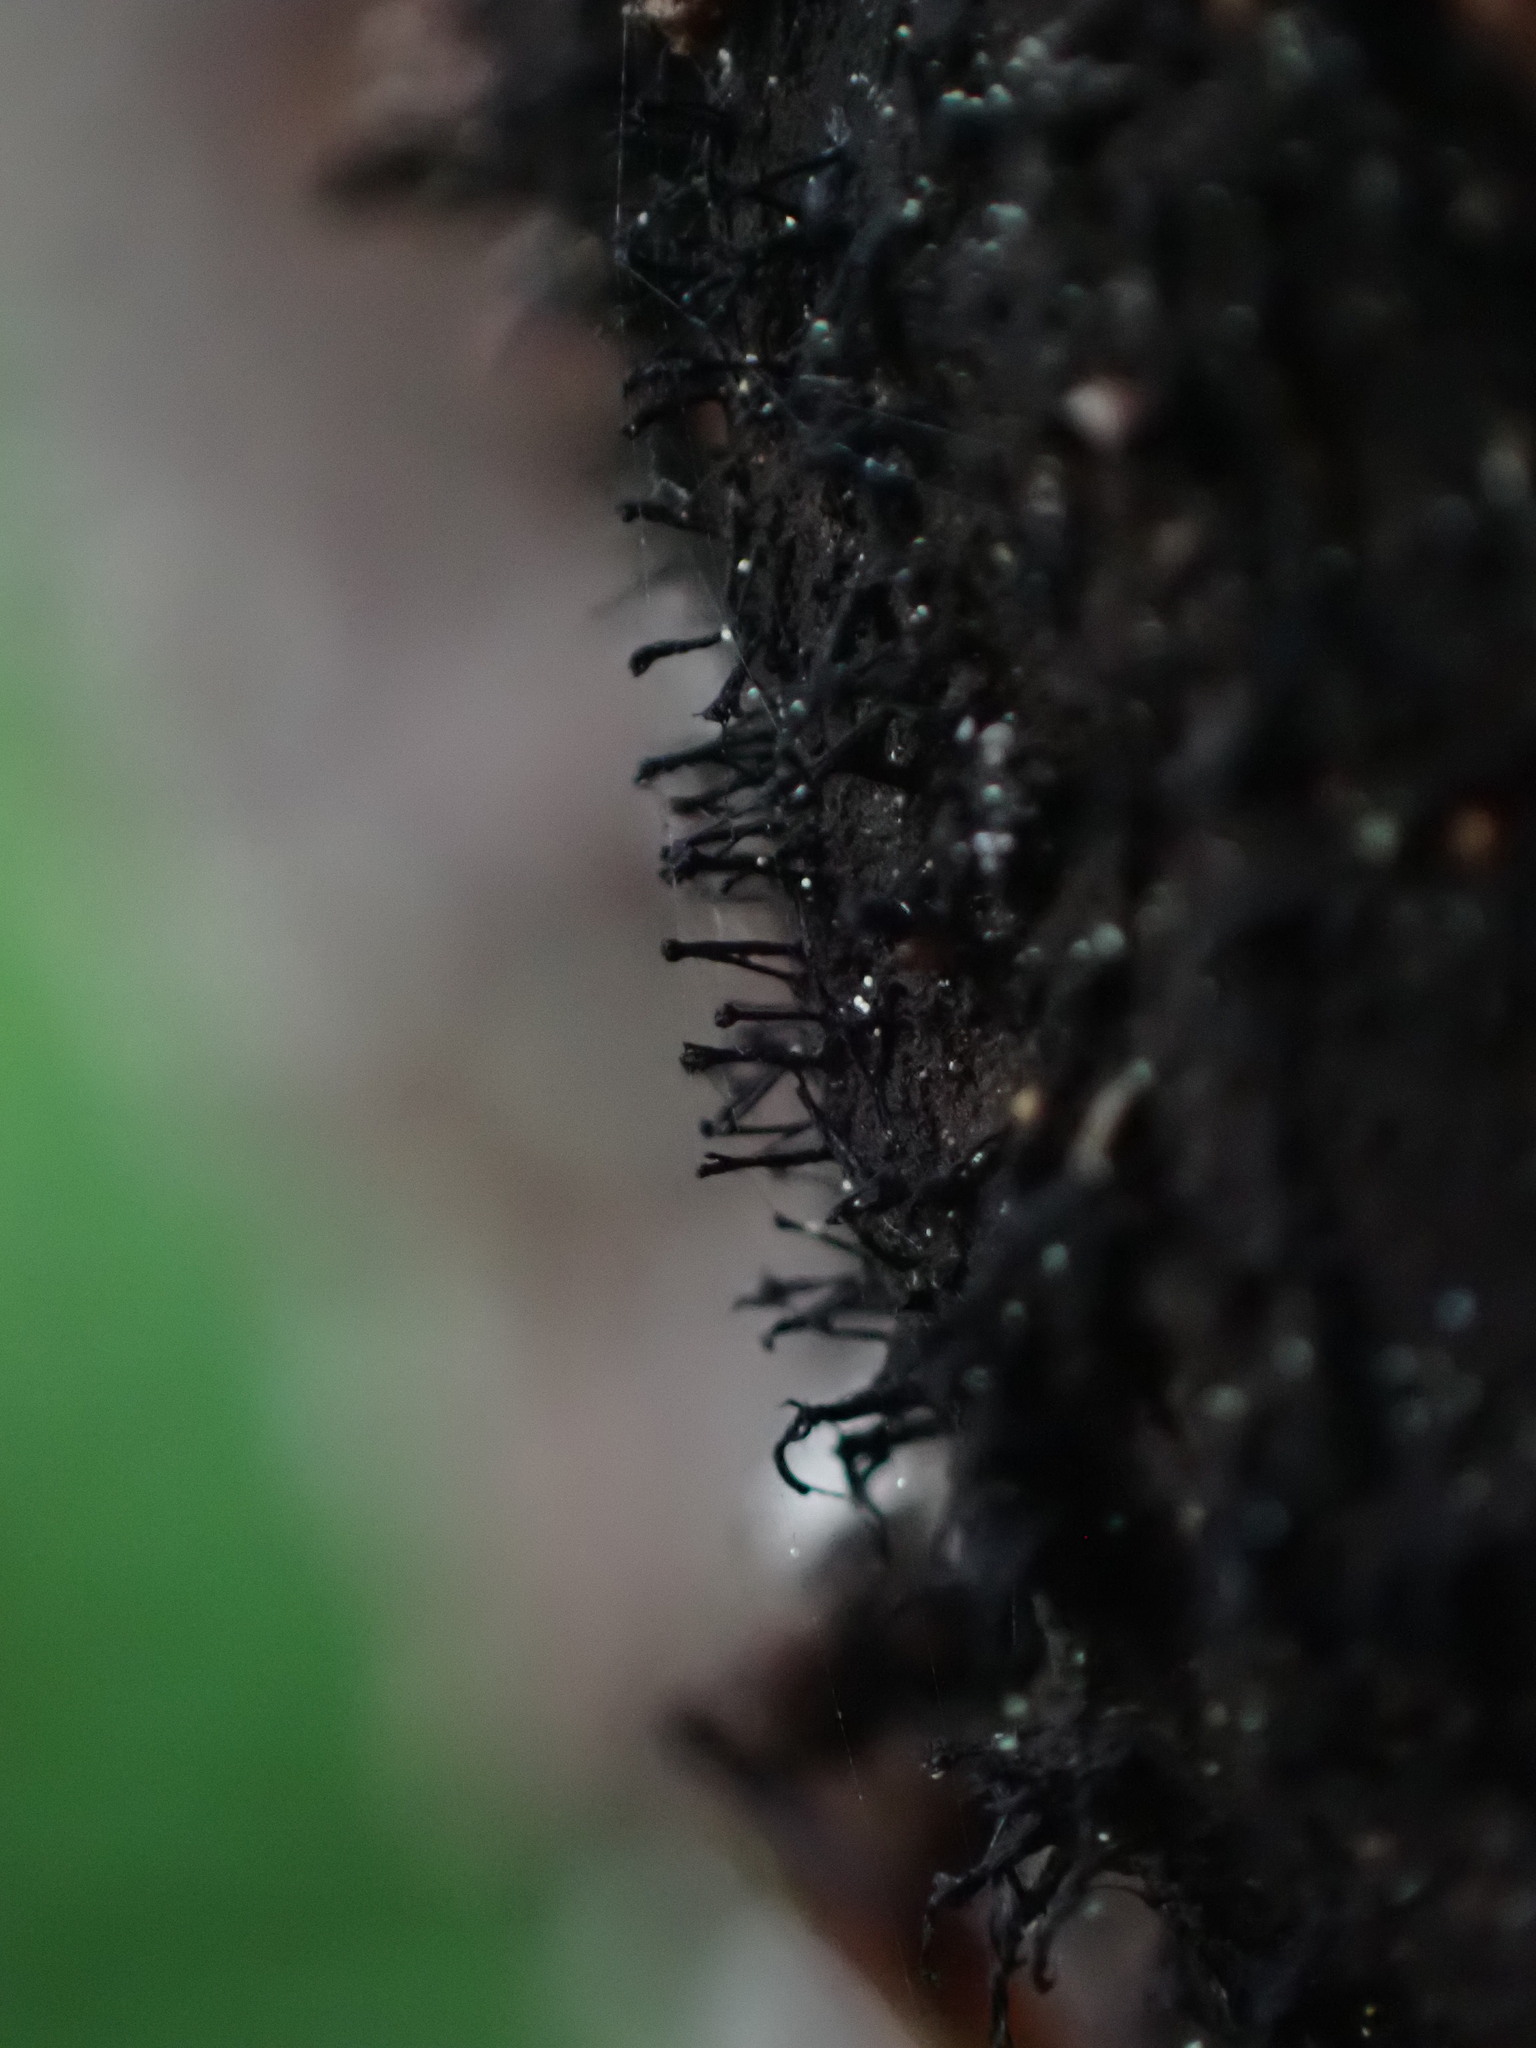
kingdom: Fungi
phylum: Ascomycota
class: Leotiomycetes
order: Helotiales
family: Amorphothecaceae
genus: Sorocybe
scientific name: Sorocybe resinae
